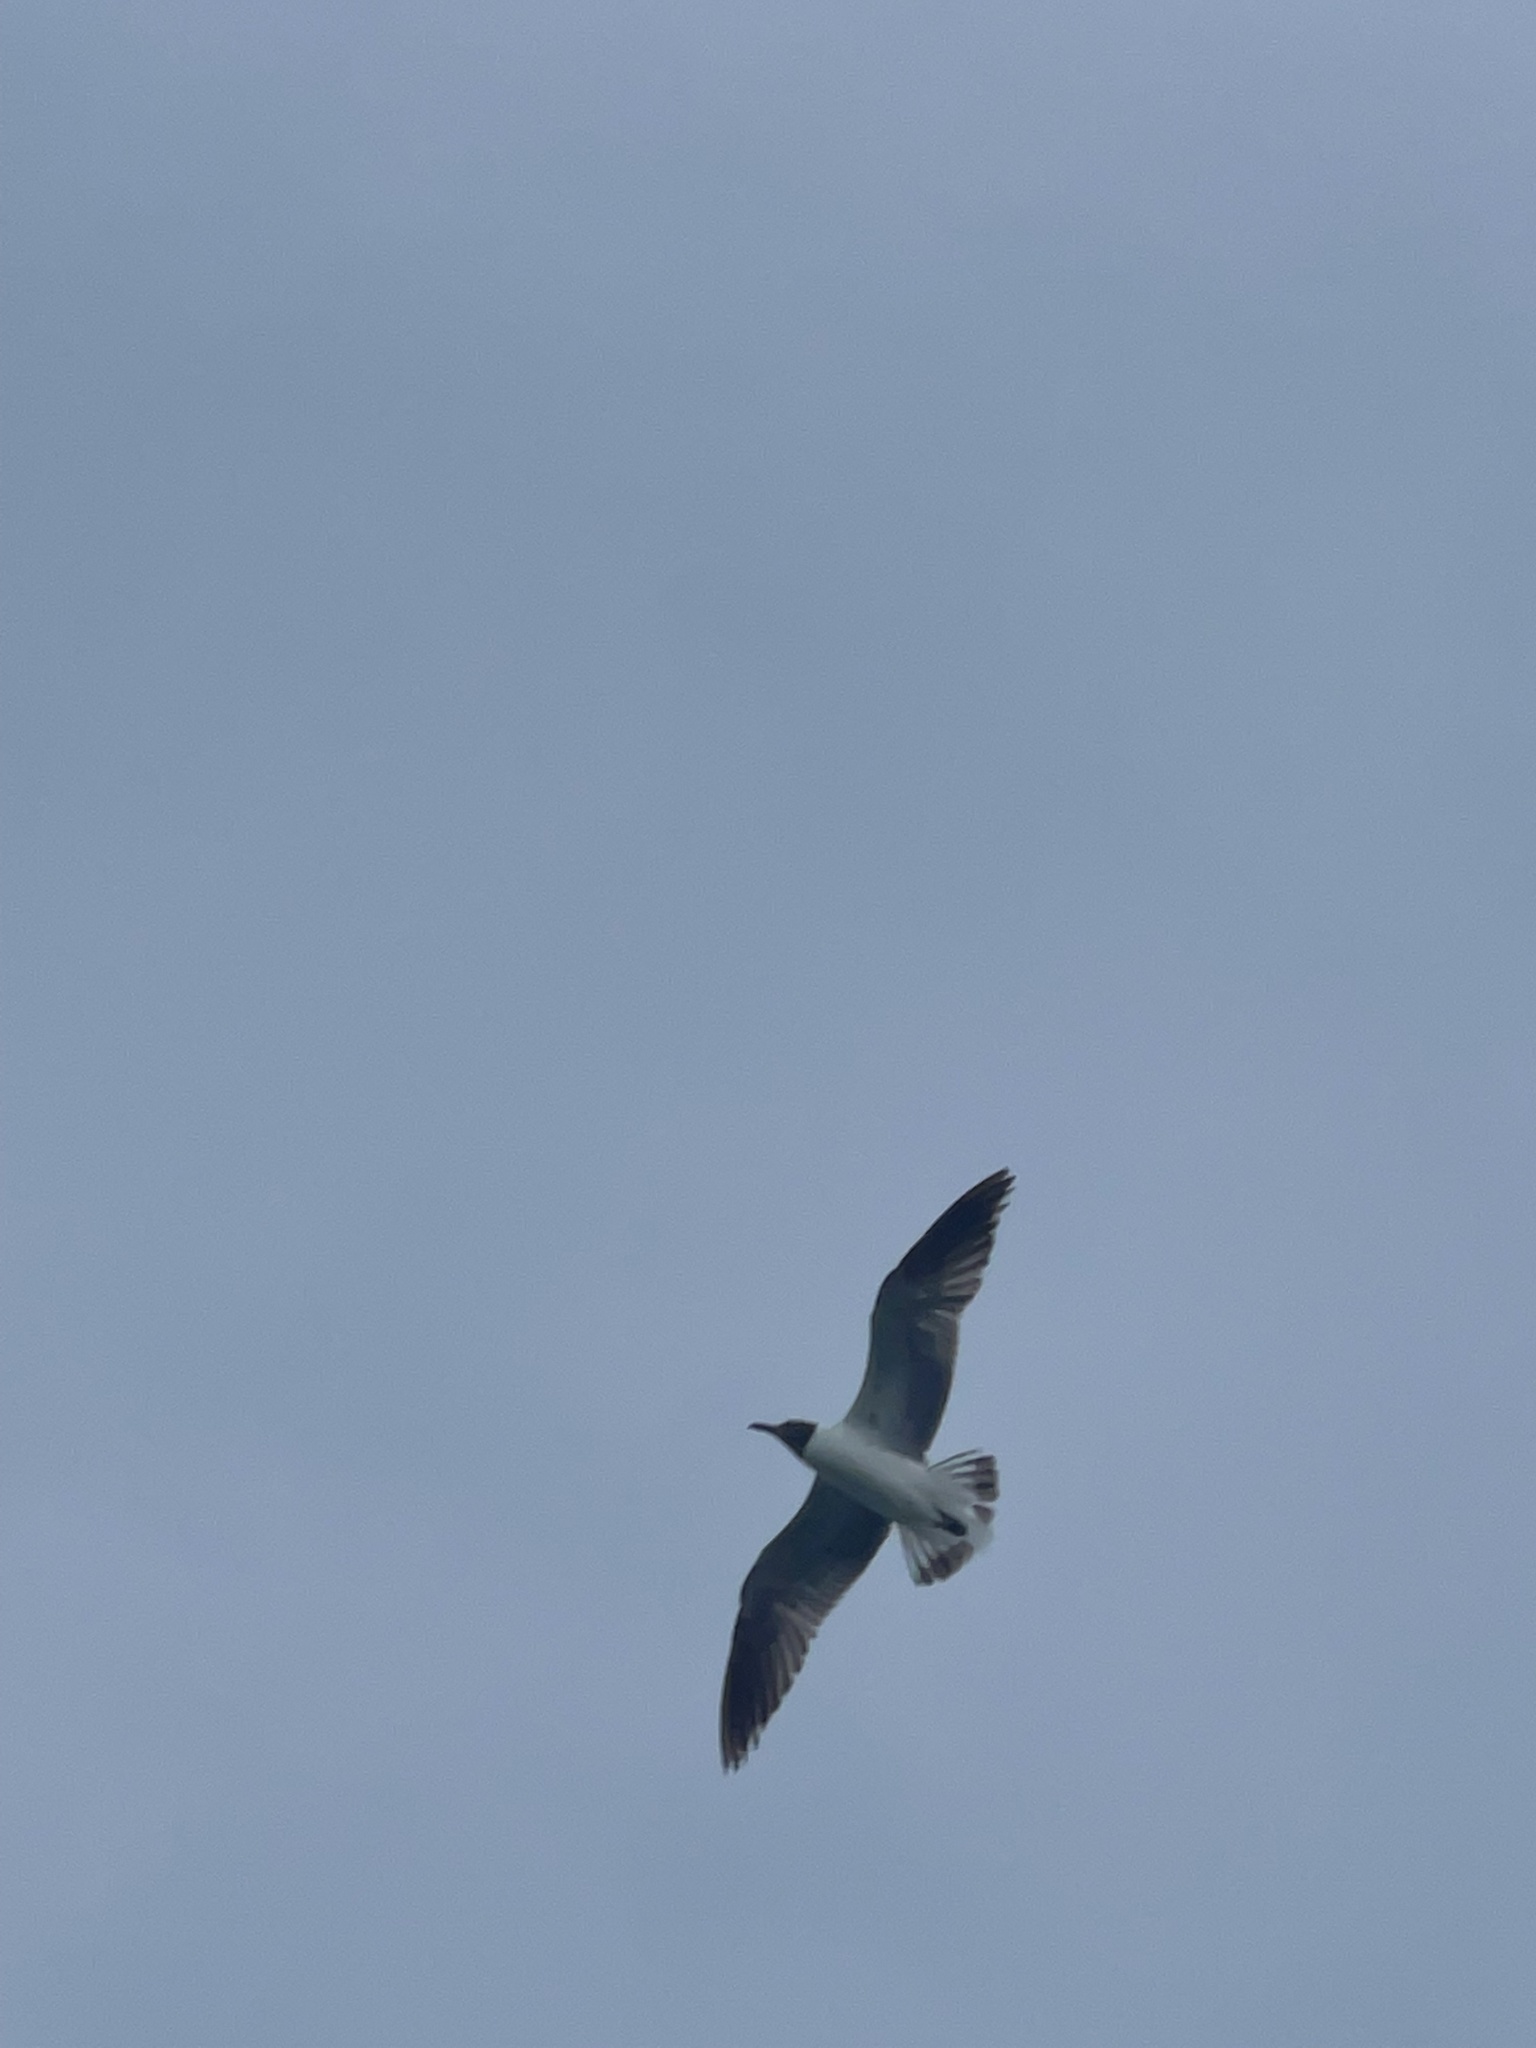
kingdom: Animalia
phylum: Chordata
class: Aves
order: Charadriiformes
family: Laridae
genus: Leucophaeus
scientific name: Leucophaeus atricilla
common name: Laughing gull
